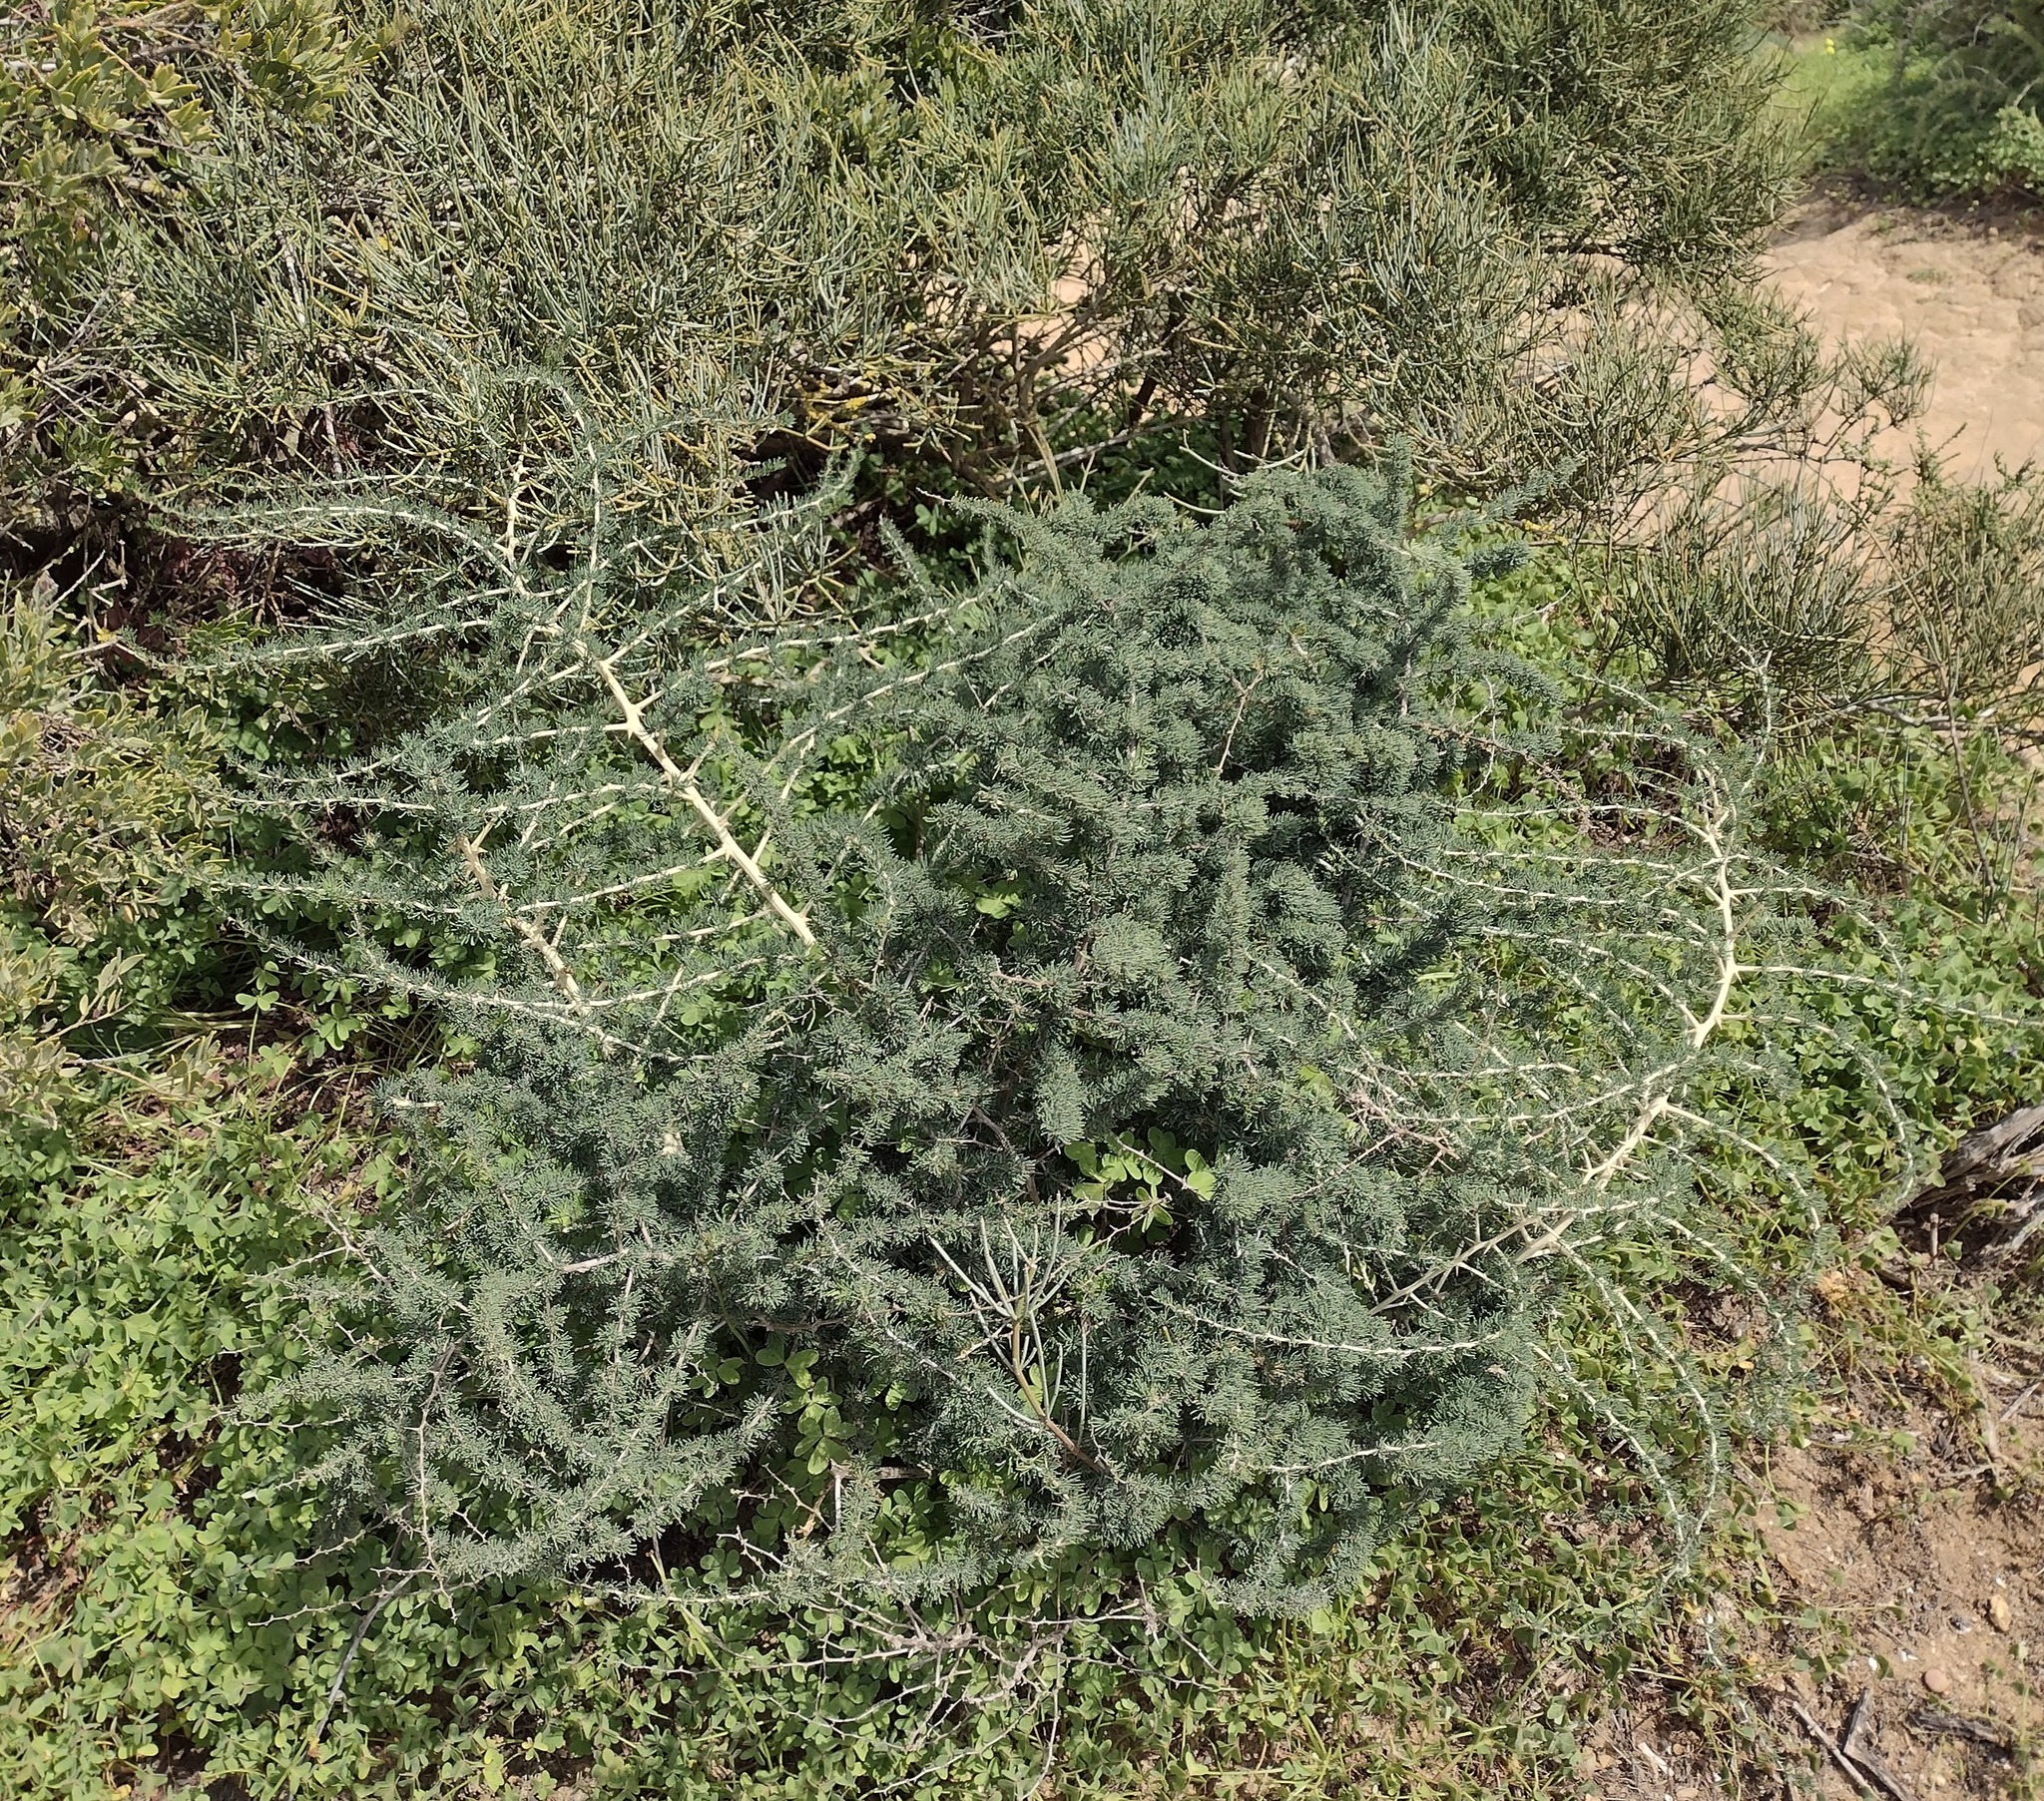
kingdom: Plantae
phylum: Tracheophyta
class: Liliopsida
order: Asparagales
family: Asparagaceae
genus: Asparagus
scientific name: Asparagus albus
